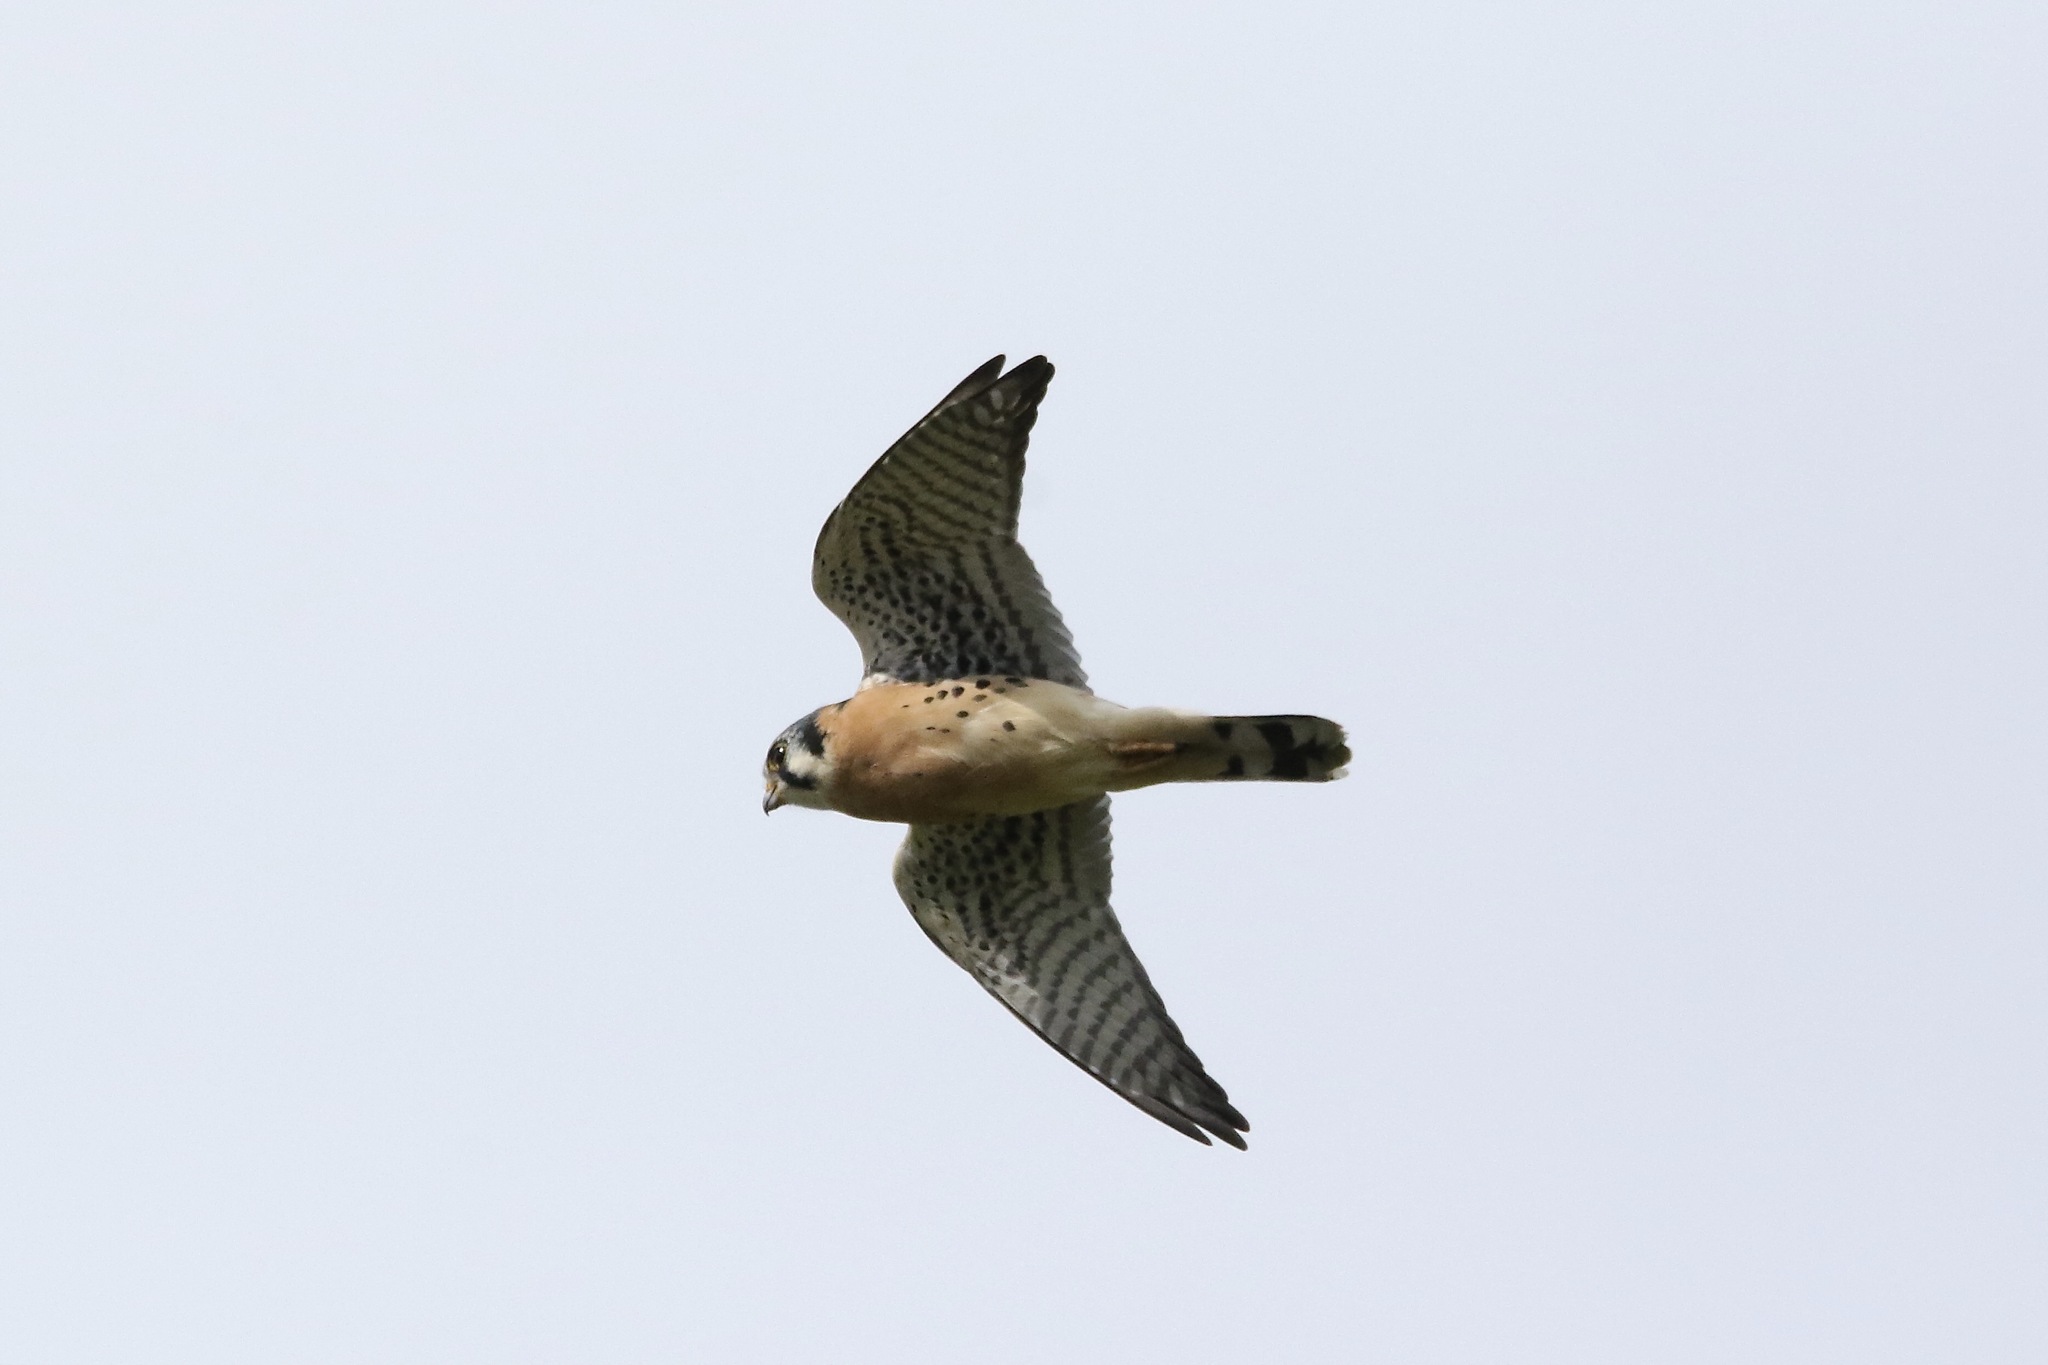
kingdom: Animalia
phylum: Chordata
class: Aves
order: Falconiformes
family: Falconidae
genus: Falco
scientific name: Falco sparverius
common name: American kestrel
